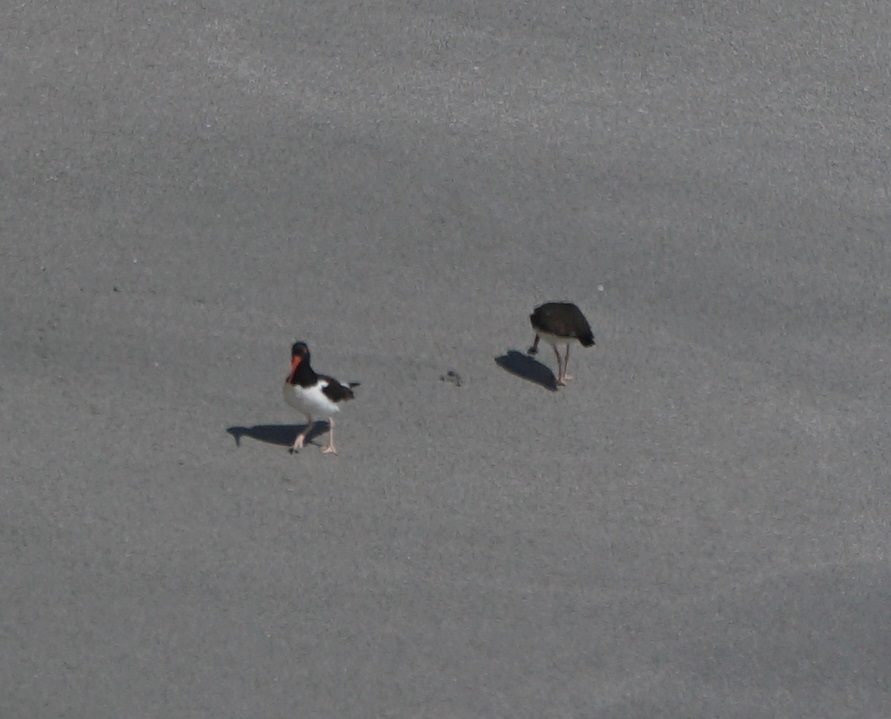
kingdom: Animalia
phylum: Chordata
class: Aves
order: Charadriiformes
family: Haematopodidae
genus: Haematopus
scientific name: Haematopus palliatus
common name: American oystercatcher
